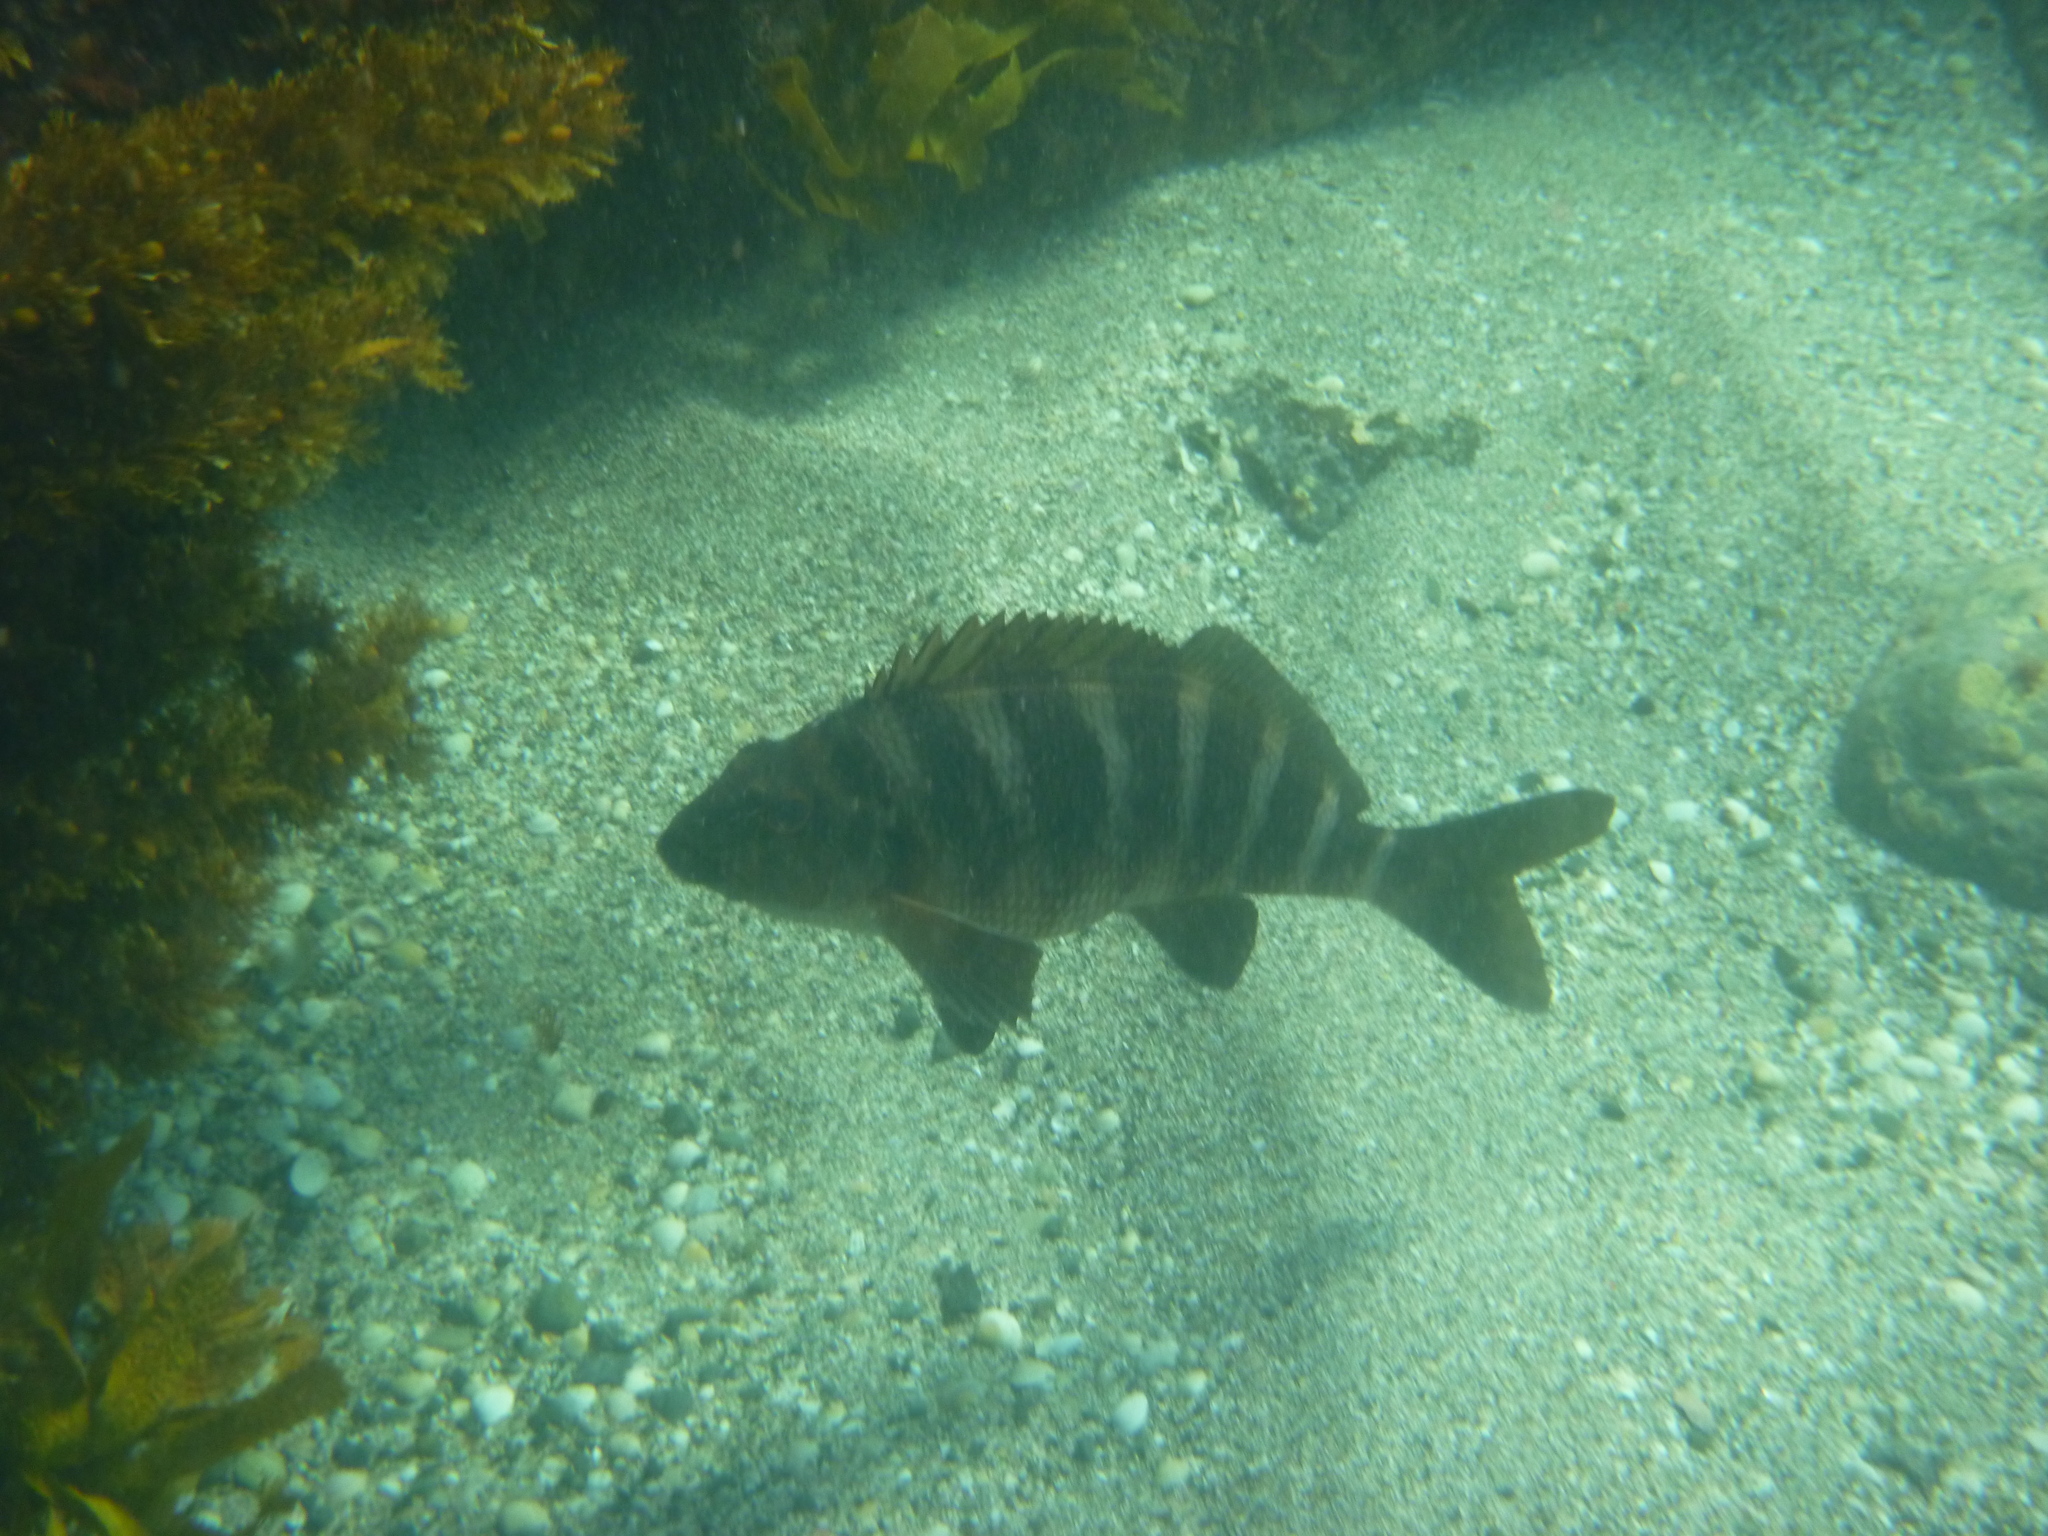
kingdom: Animalia
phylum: Chordata
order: Perciformes
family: Cheilodactylidae
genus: Cheilodactylus
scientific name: Cheilodactylus spectabilis
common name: Red moki
